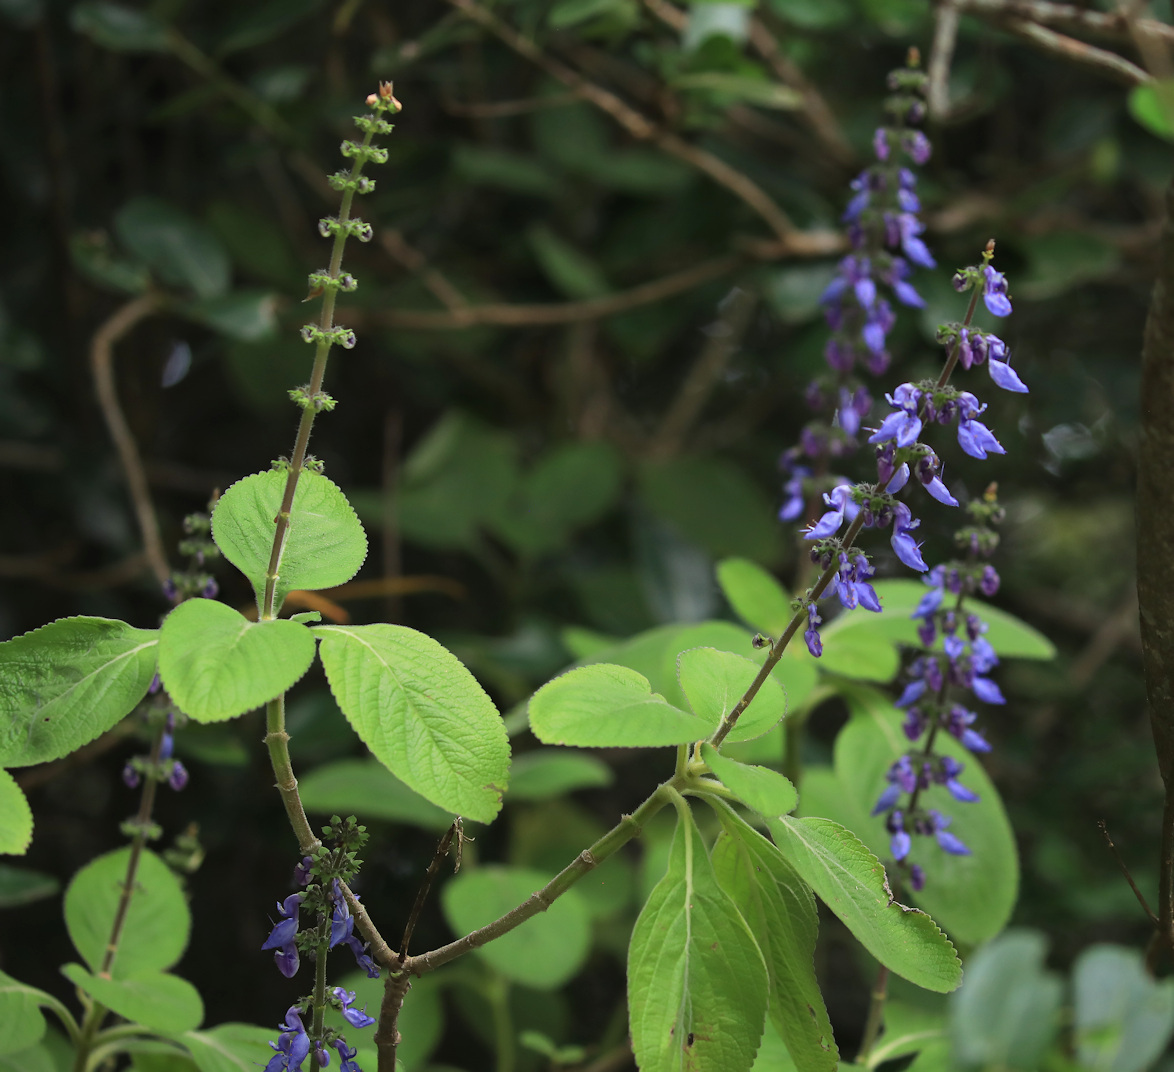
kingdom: Plantae
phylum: Tracheophyta
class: Magnoliopsida
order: Lamiales
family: Lamiaceae
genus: Coleus
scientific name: Coleus barbatus
